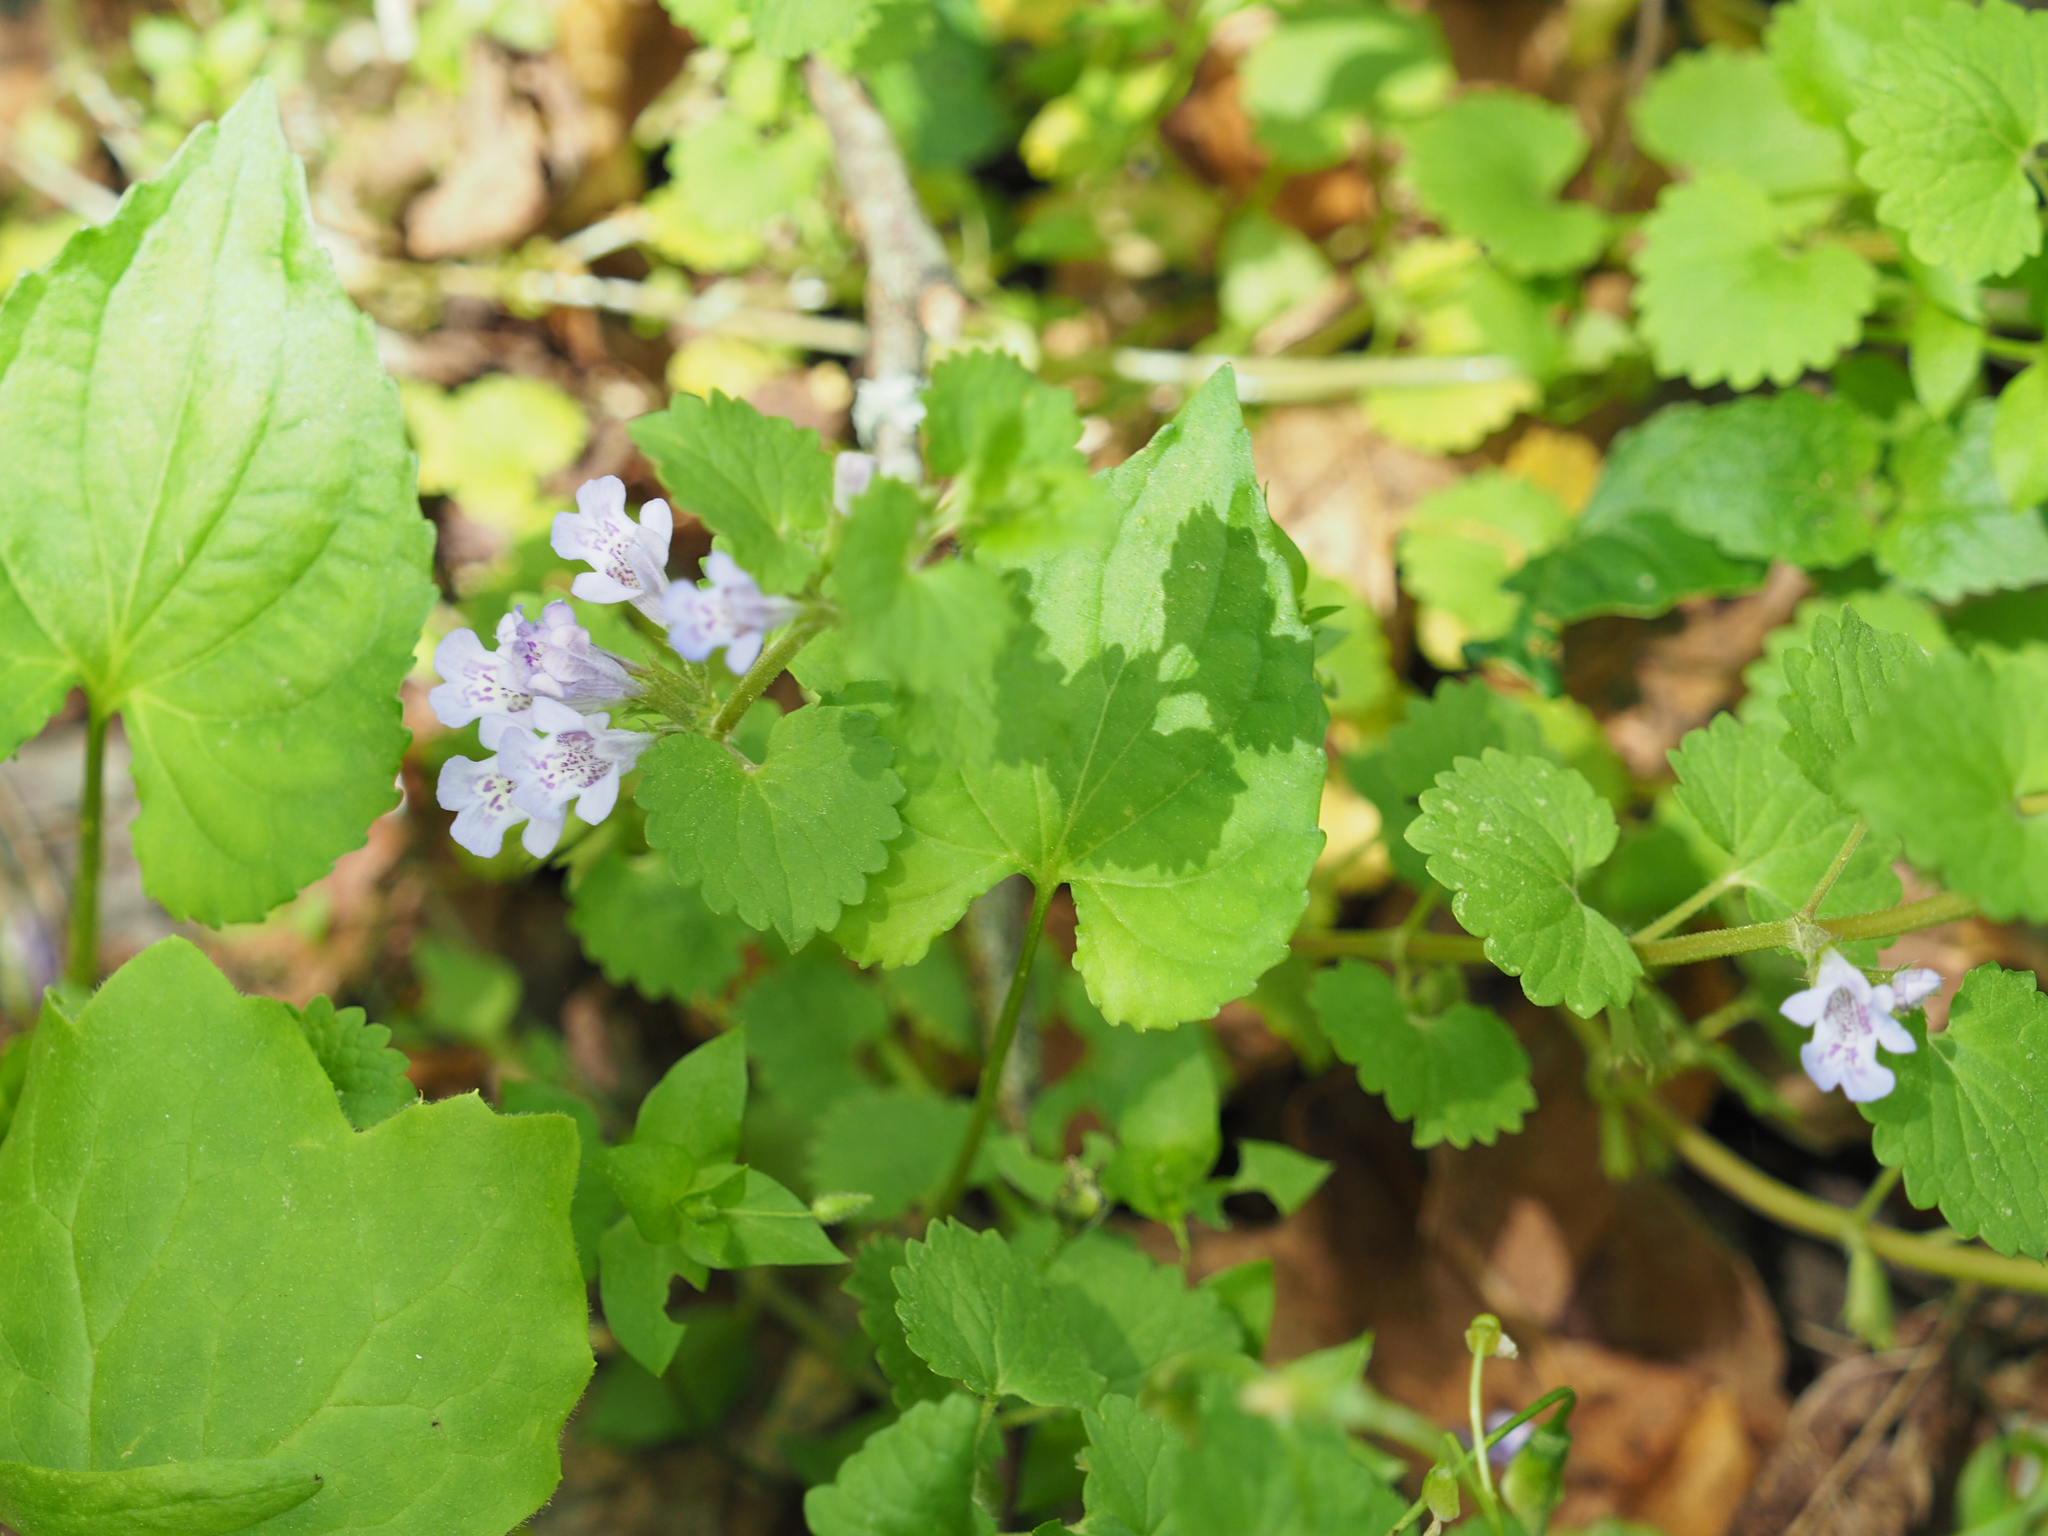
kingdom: Plantae
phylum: Tracheophyta
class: Magnoliopsida
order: Lamiales
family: Lamiaceae
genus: Glechoma
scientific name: Glechoma hederacea
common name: Ground ivy
